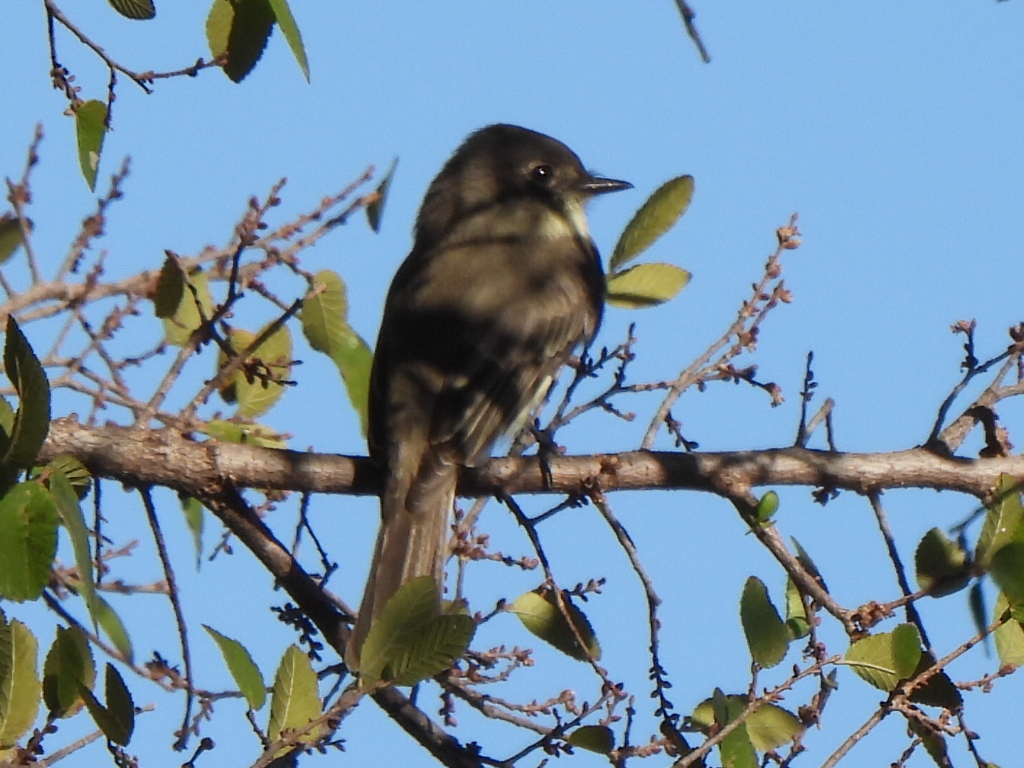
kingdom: Animalia
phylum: Chordata
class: Aves
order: Passeriformes
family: Tyrannidae
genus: Sayornis
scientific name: Sayornis phoebe
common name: Eastern phoebe
